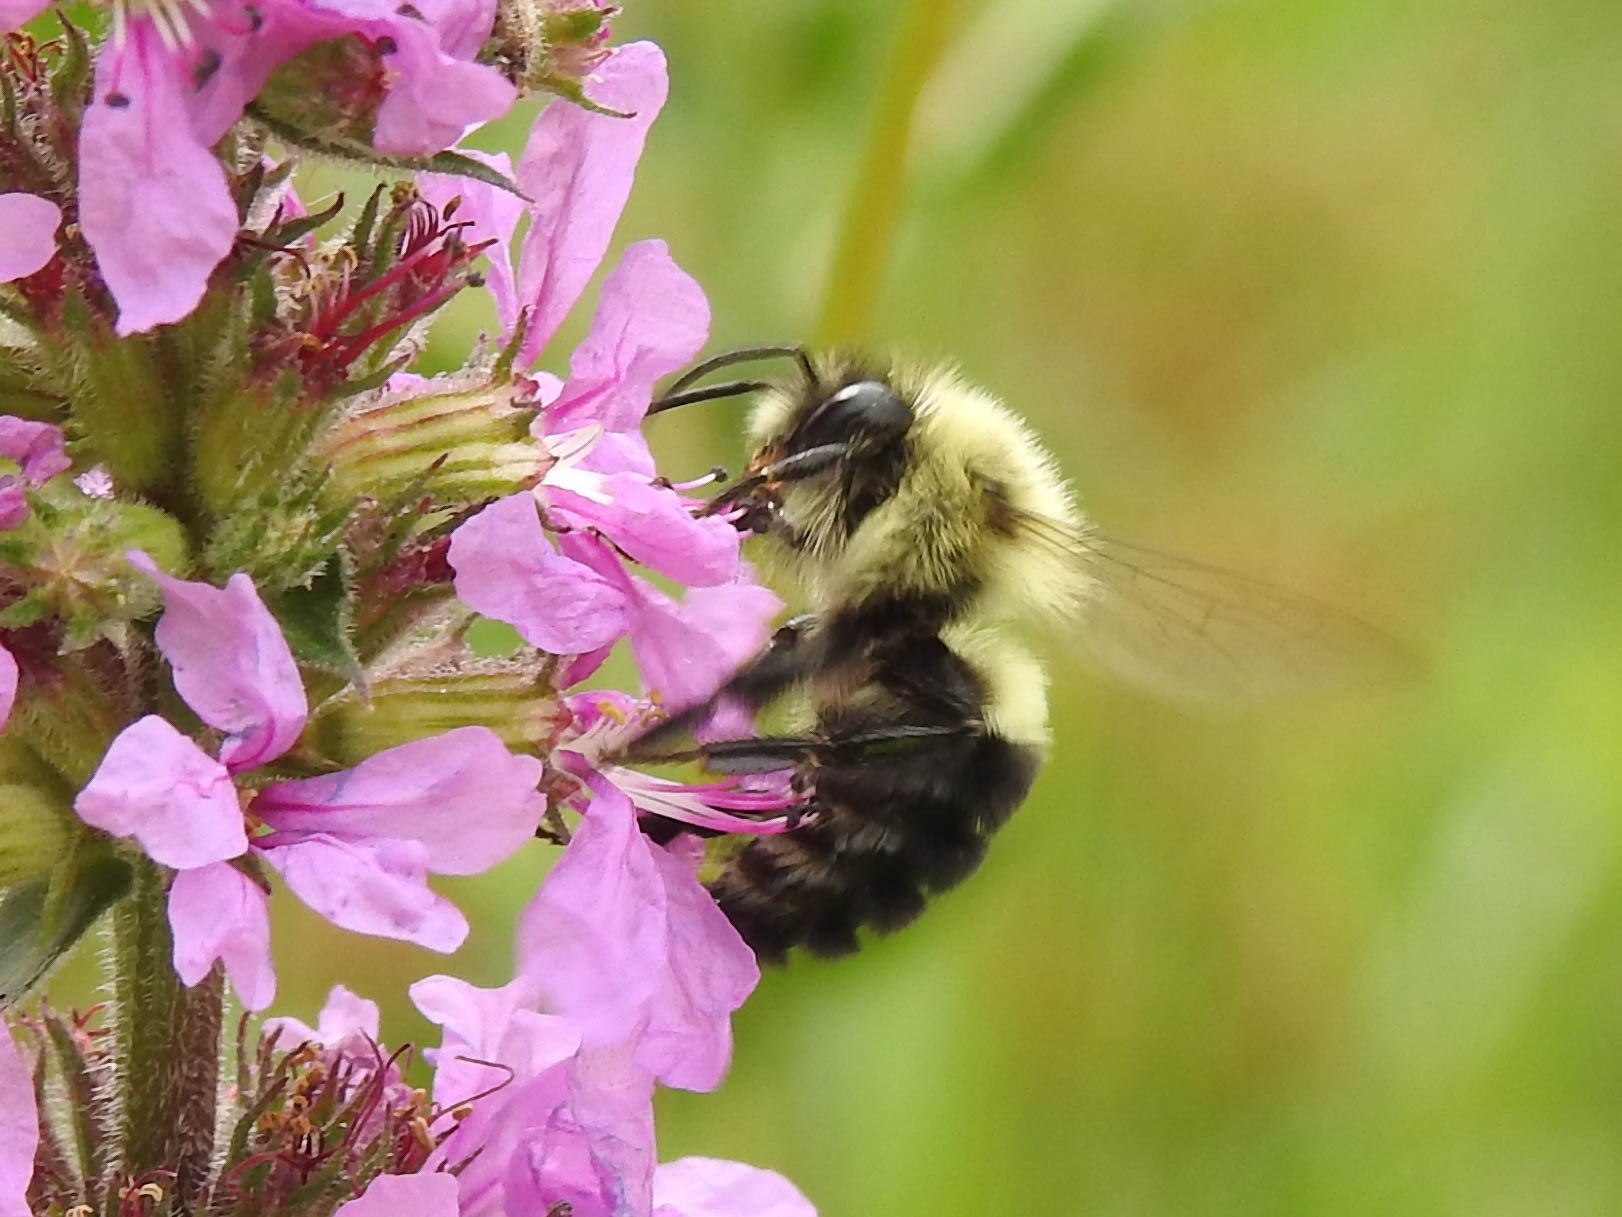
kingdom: Animalia
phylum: Arthropoda
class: Insecta
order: Hymenoptera
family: Apidae
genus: Bombus
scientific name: Bombus impatiens
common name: Common eastern bumble bee
